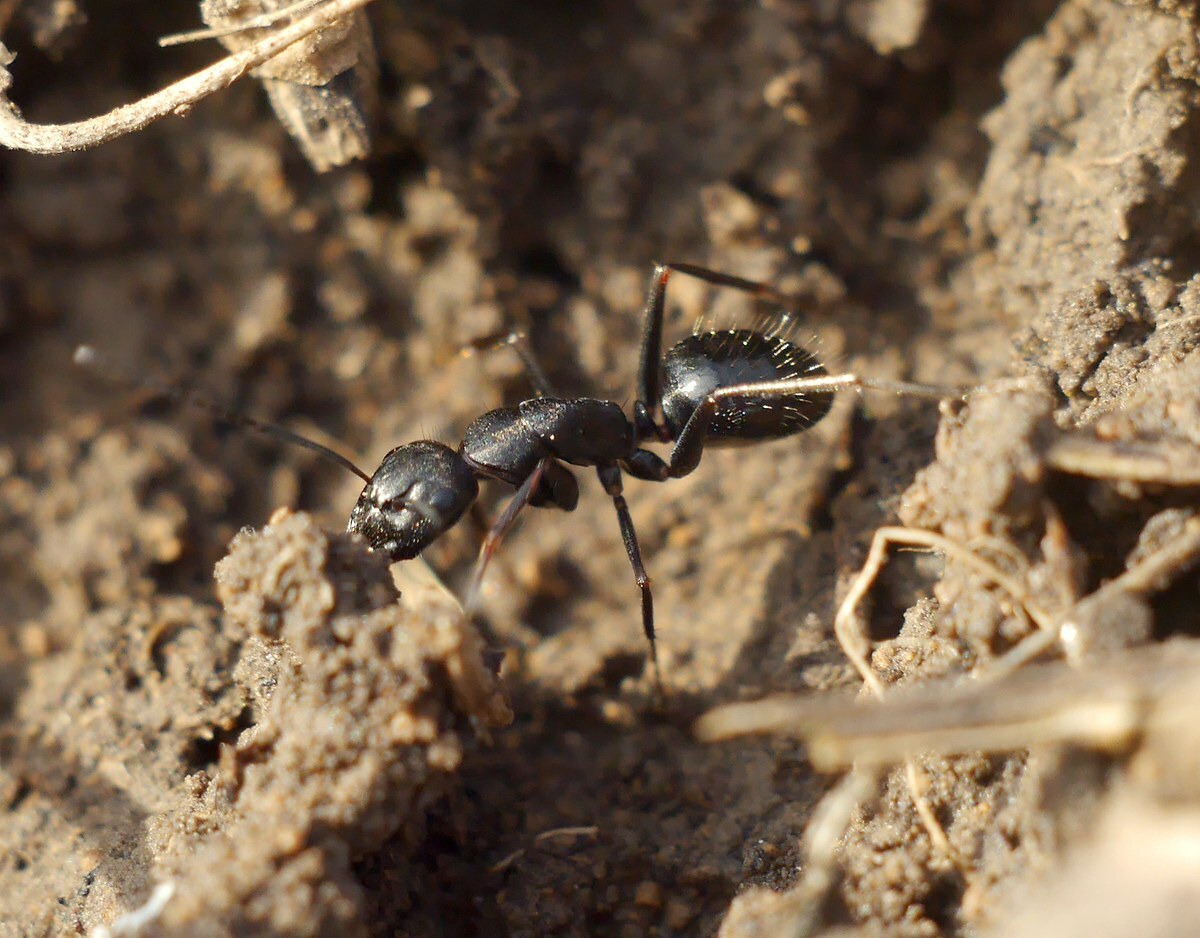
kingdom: Animalia
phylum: Arthropoda
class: Insecta
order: Hymenoptera
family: Formicidae
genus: Camponotus
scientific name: Camponotus aethiops
